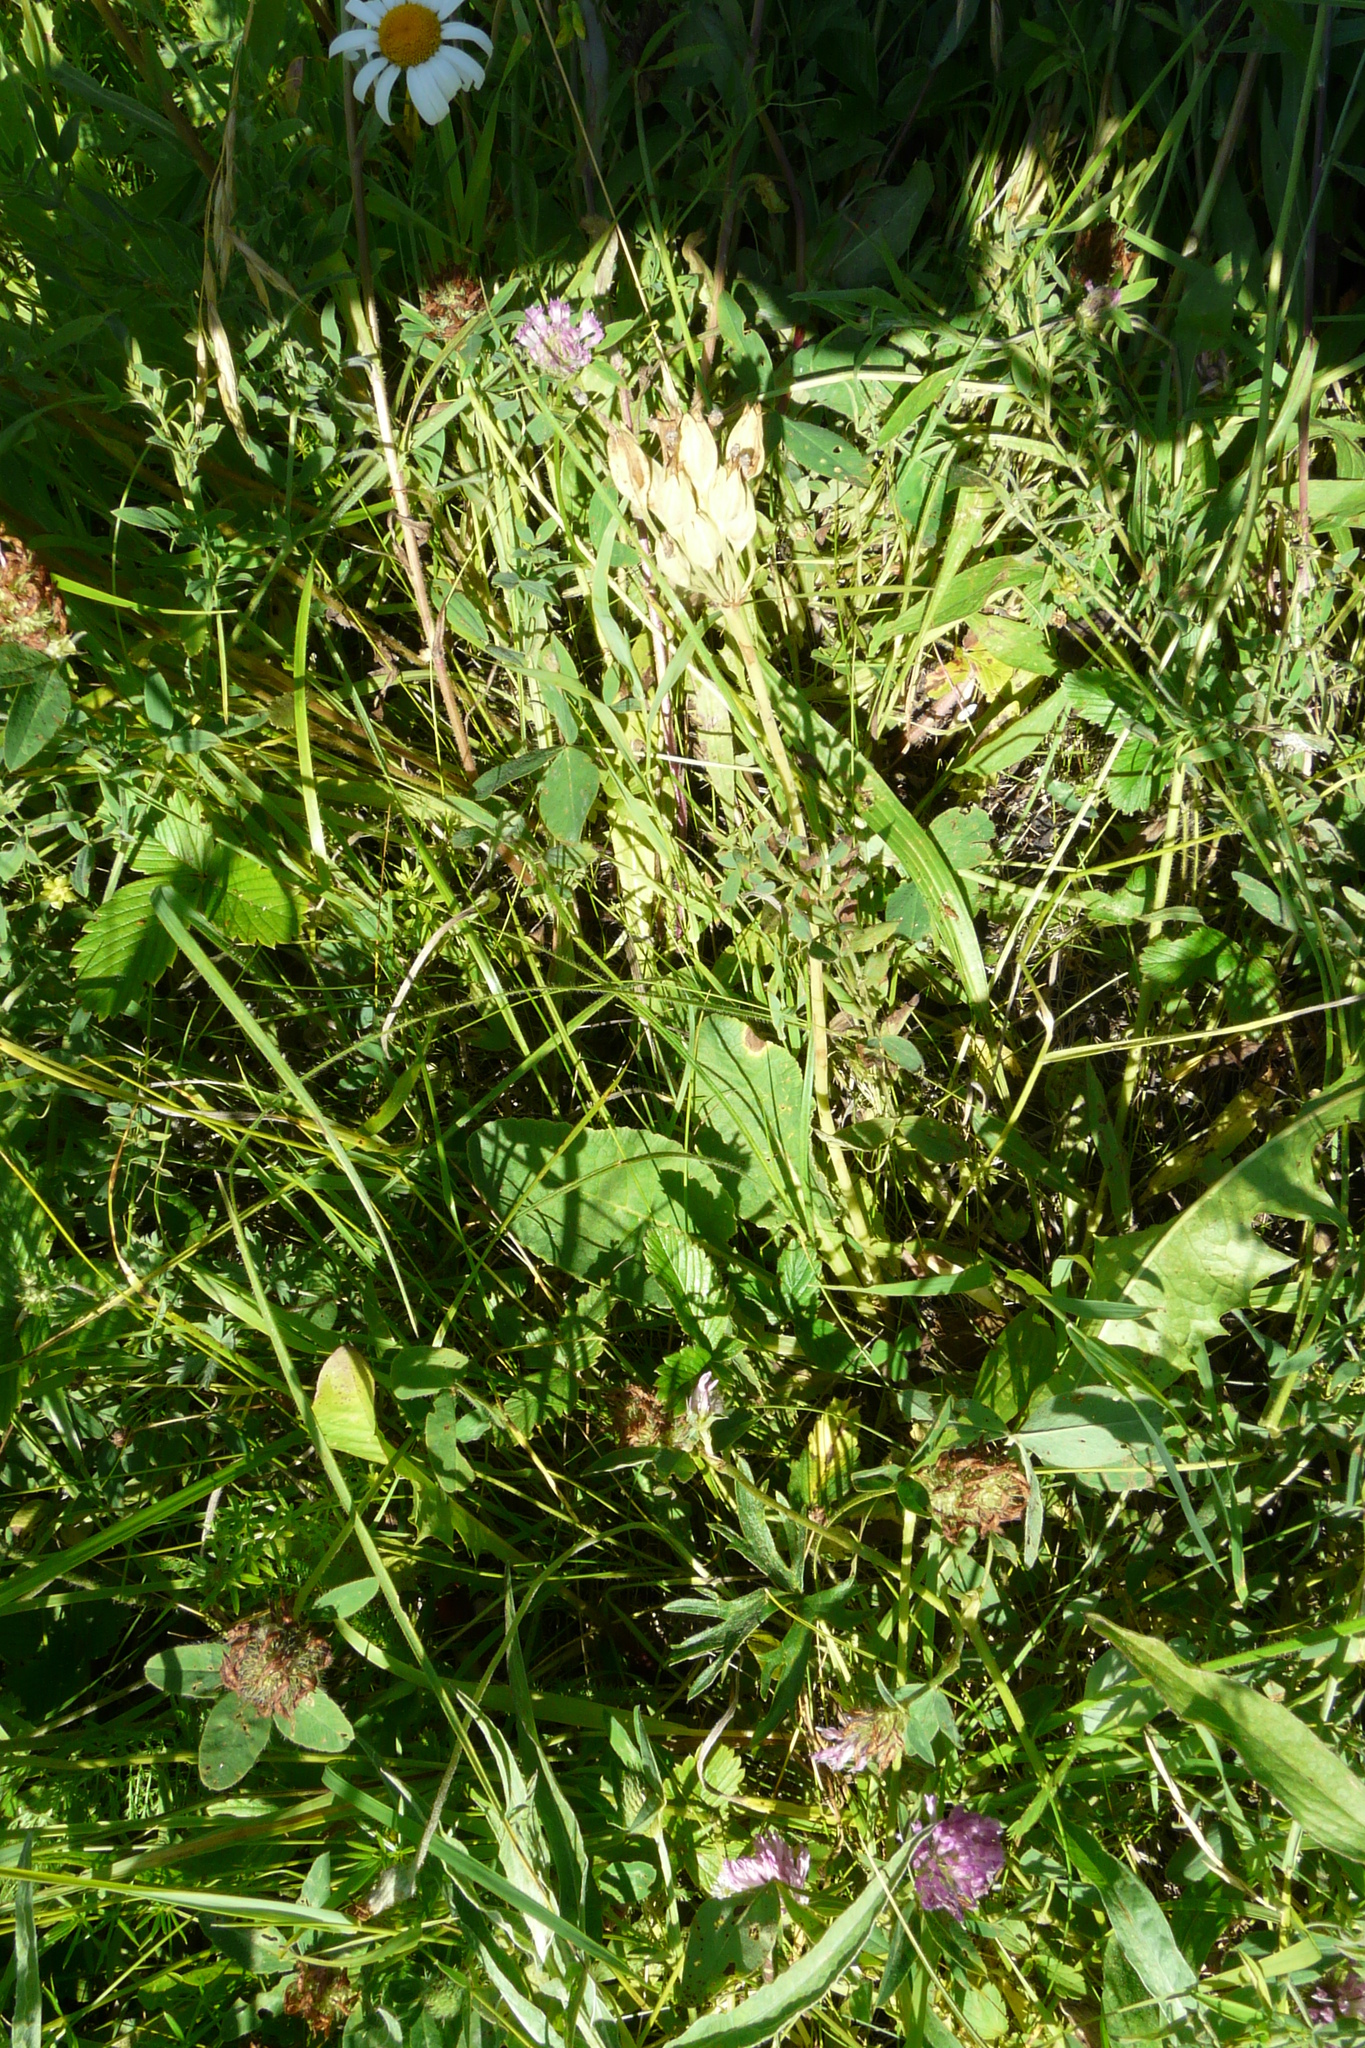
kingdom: Plantae
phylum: Tracheophyta
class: Magnoliopsida
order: Ericales
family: Primulaceae
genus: Primula
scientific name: Primula veris
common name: Cowslip
